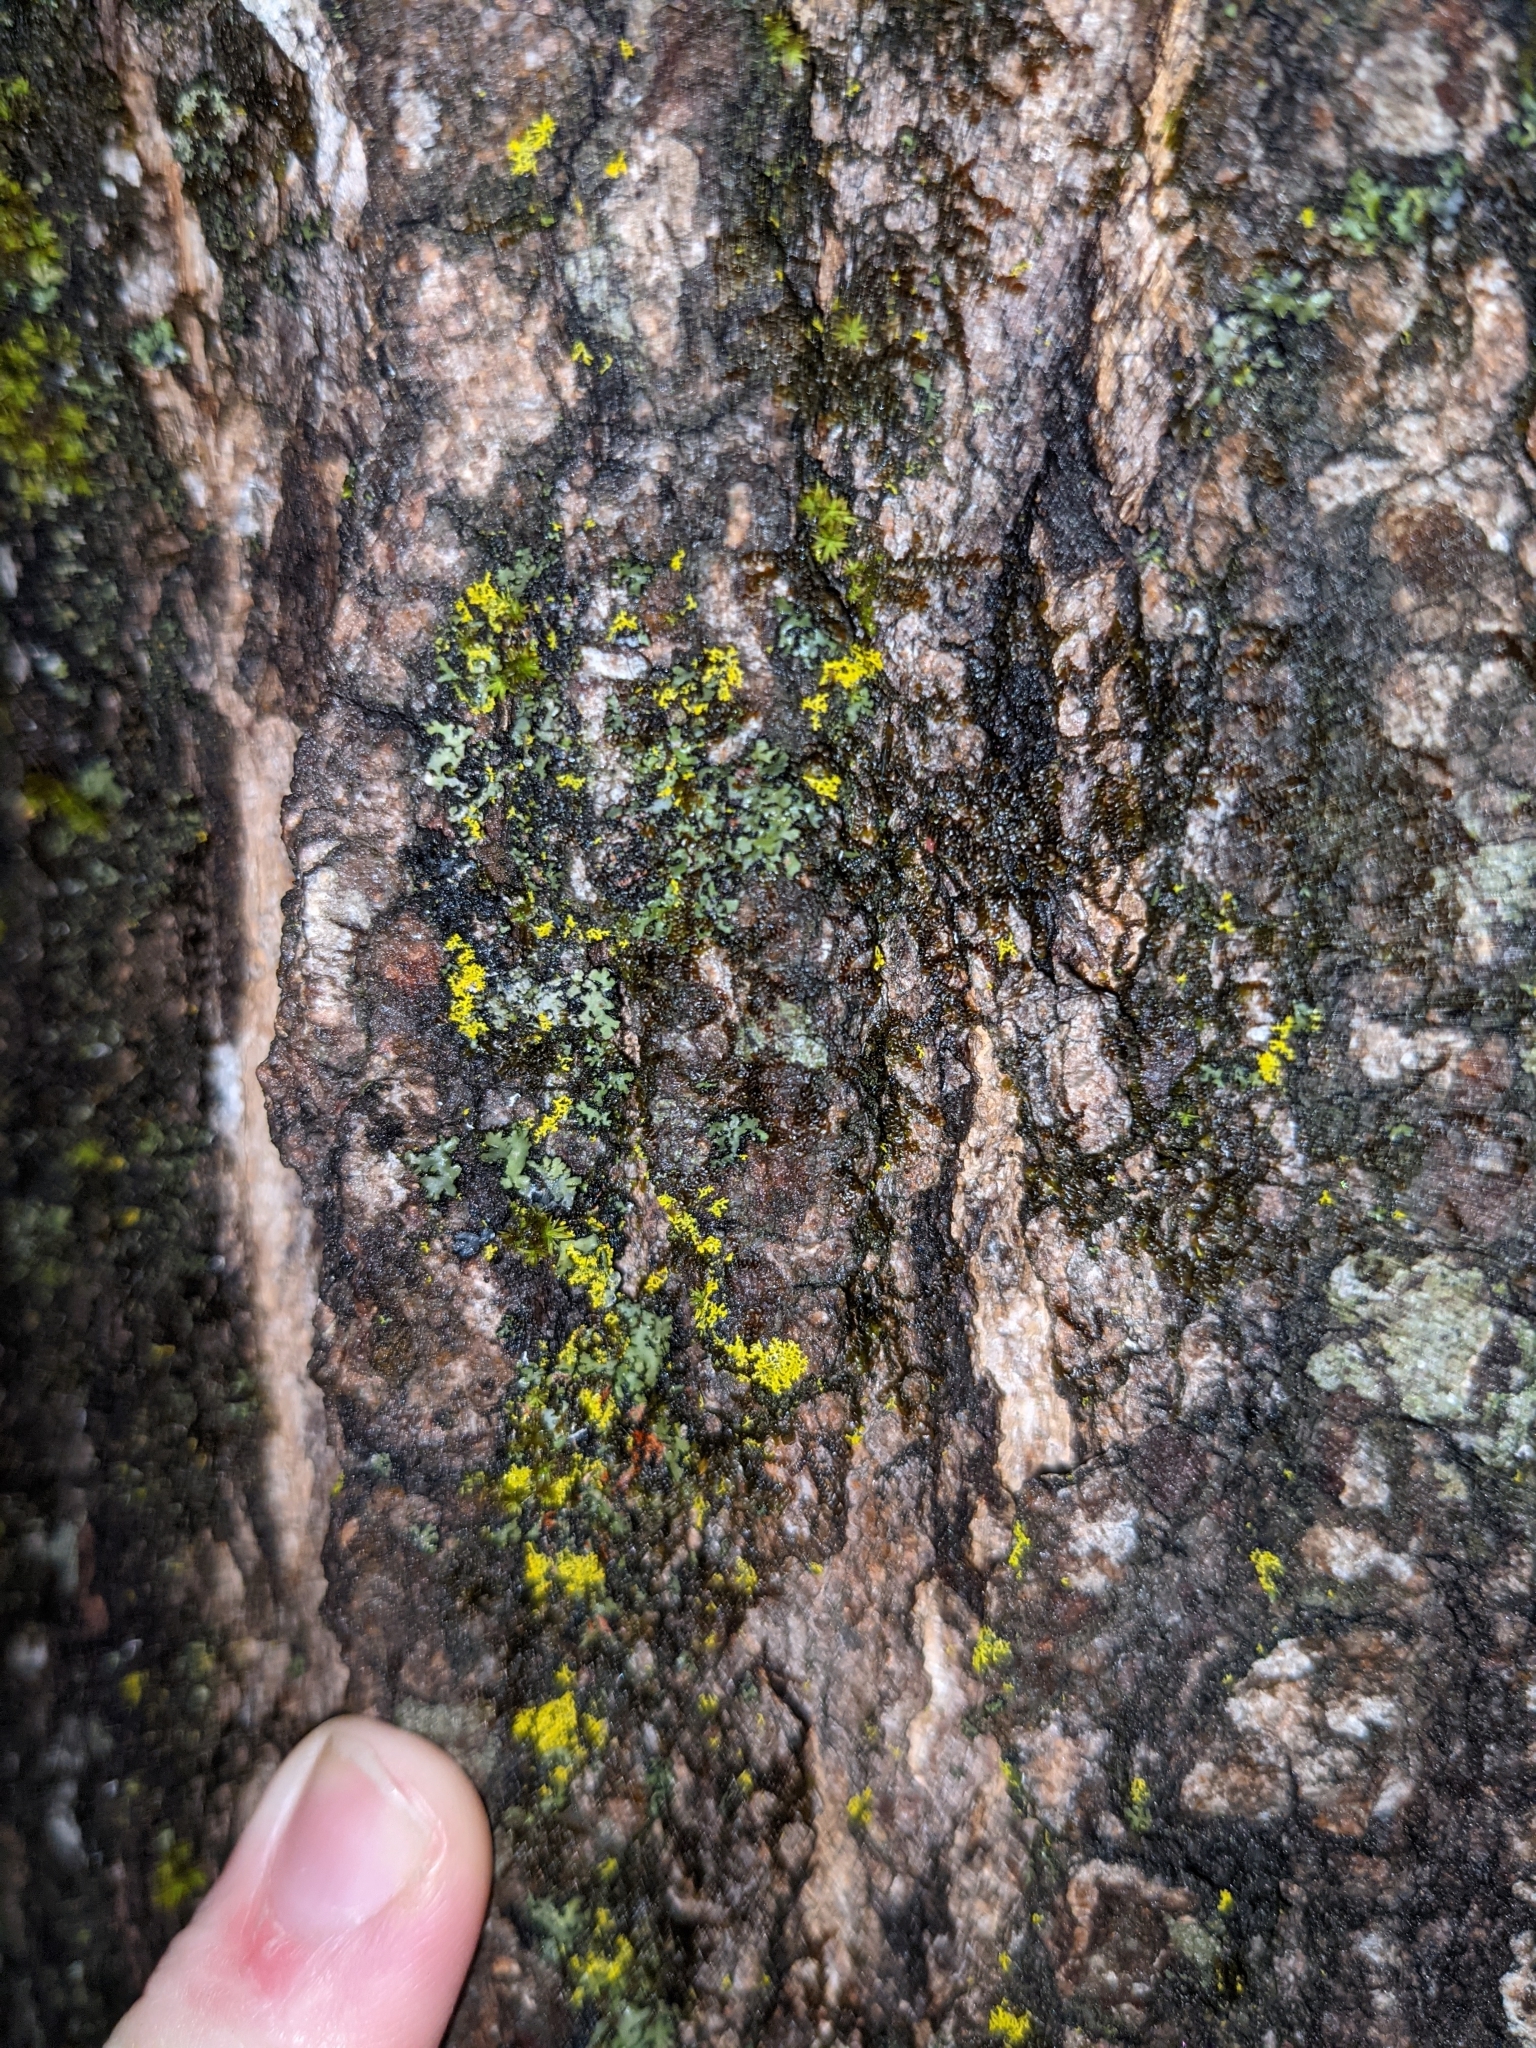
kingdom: Fungi
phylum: Ascomycota
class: Candelariomycetes
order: Candelariales
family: Candelariaceae
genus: Candelariella
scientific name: Candelariella vitellina
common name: Common goldspeck
